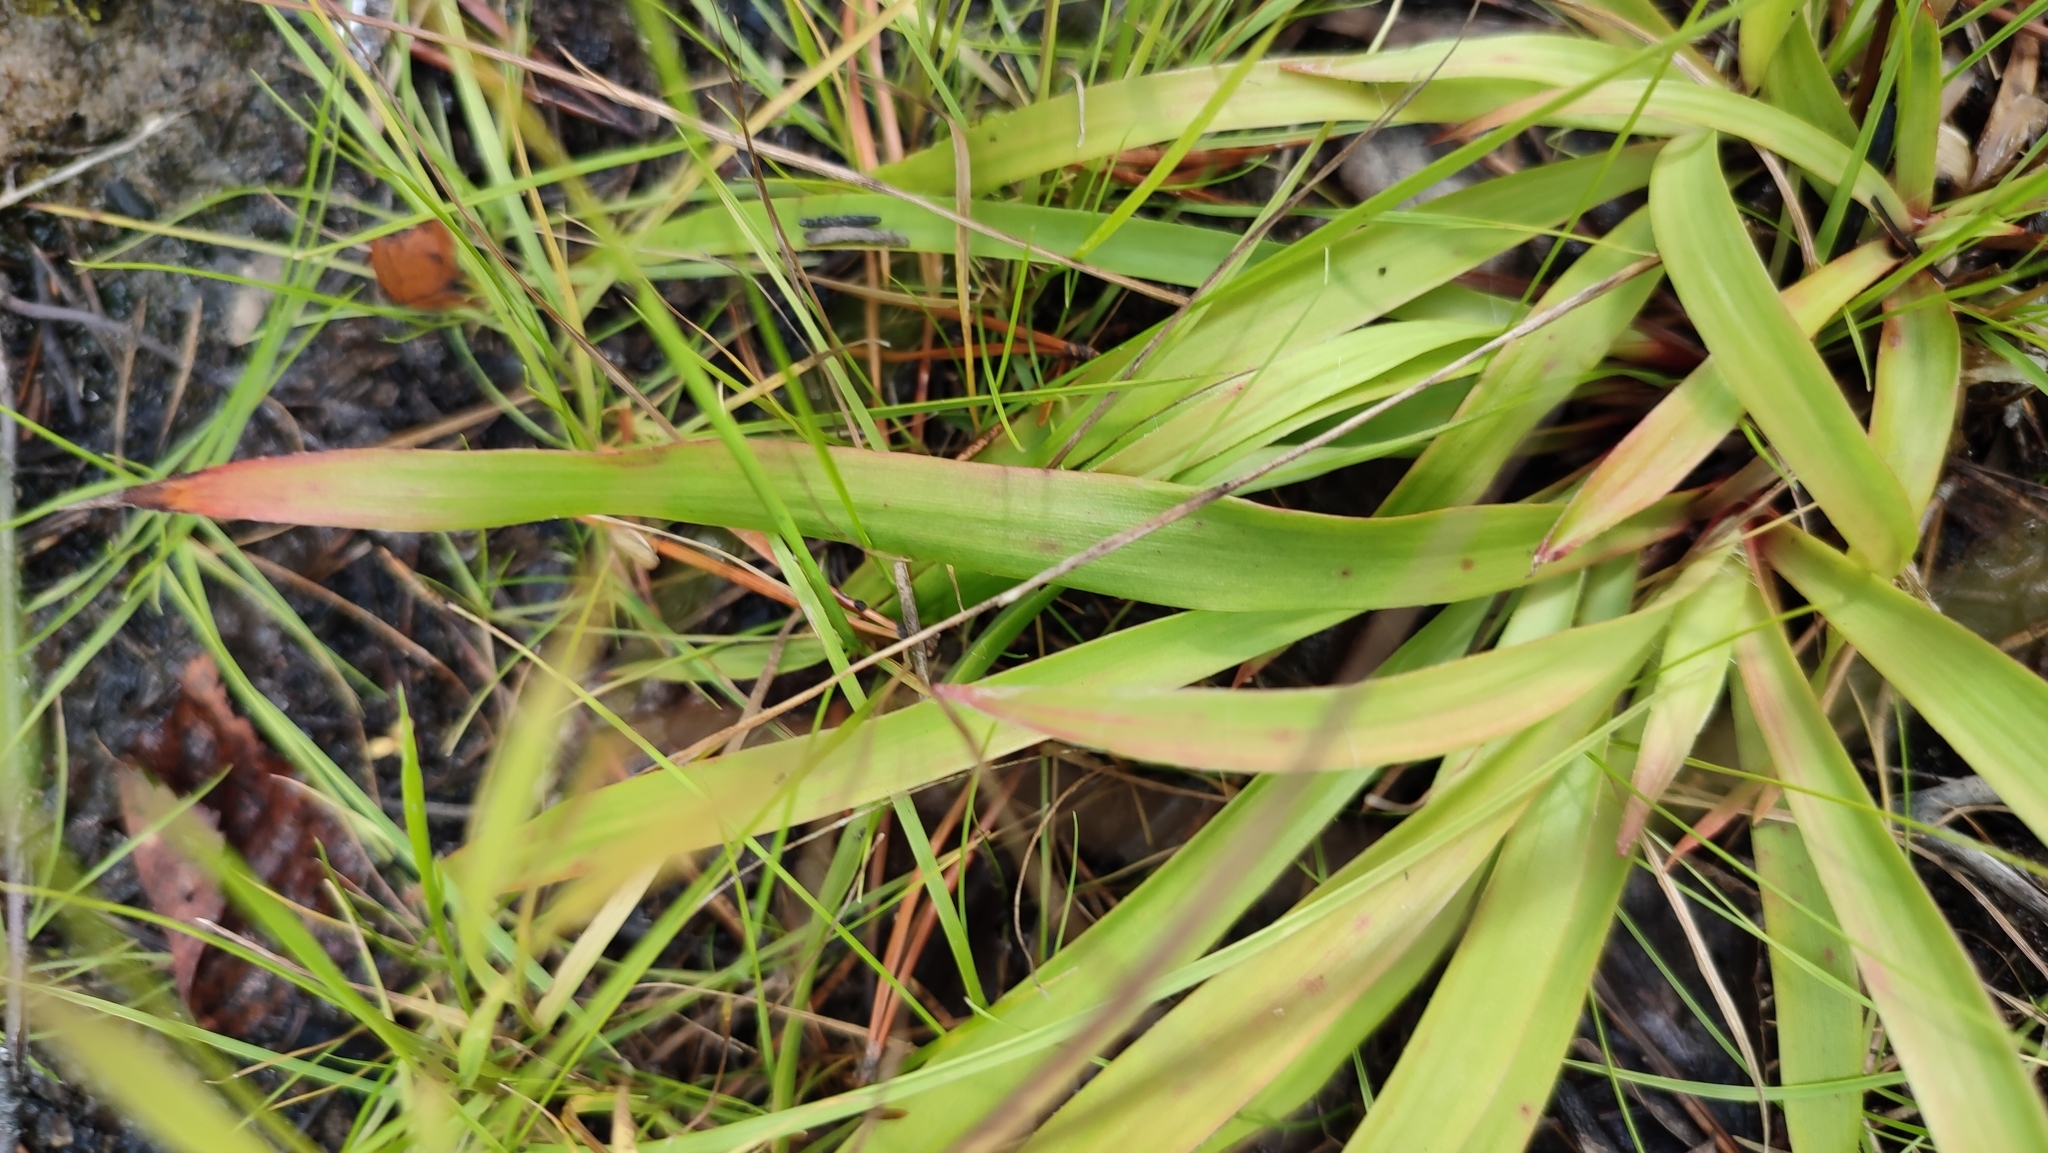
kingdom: Plantae
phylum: Tracheophyta
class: Liliopsida
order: Poales
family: Juncaceae
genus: Luzula
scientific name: Luzula pilosa
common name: Hairy wood-rush
